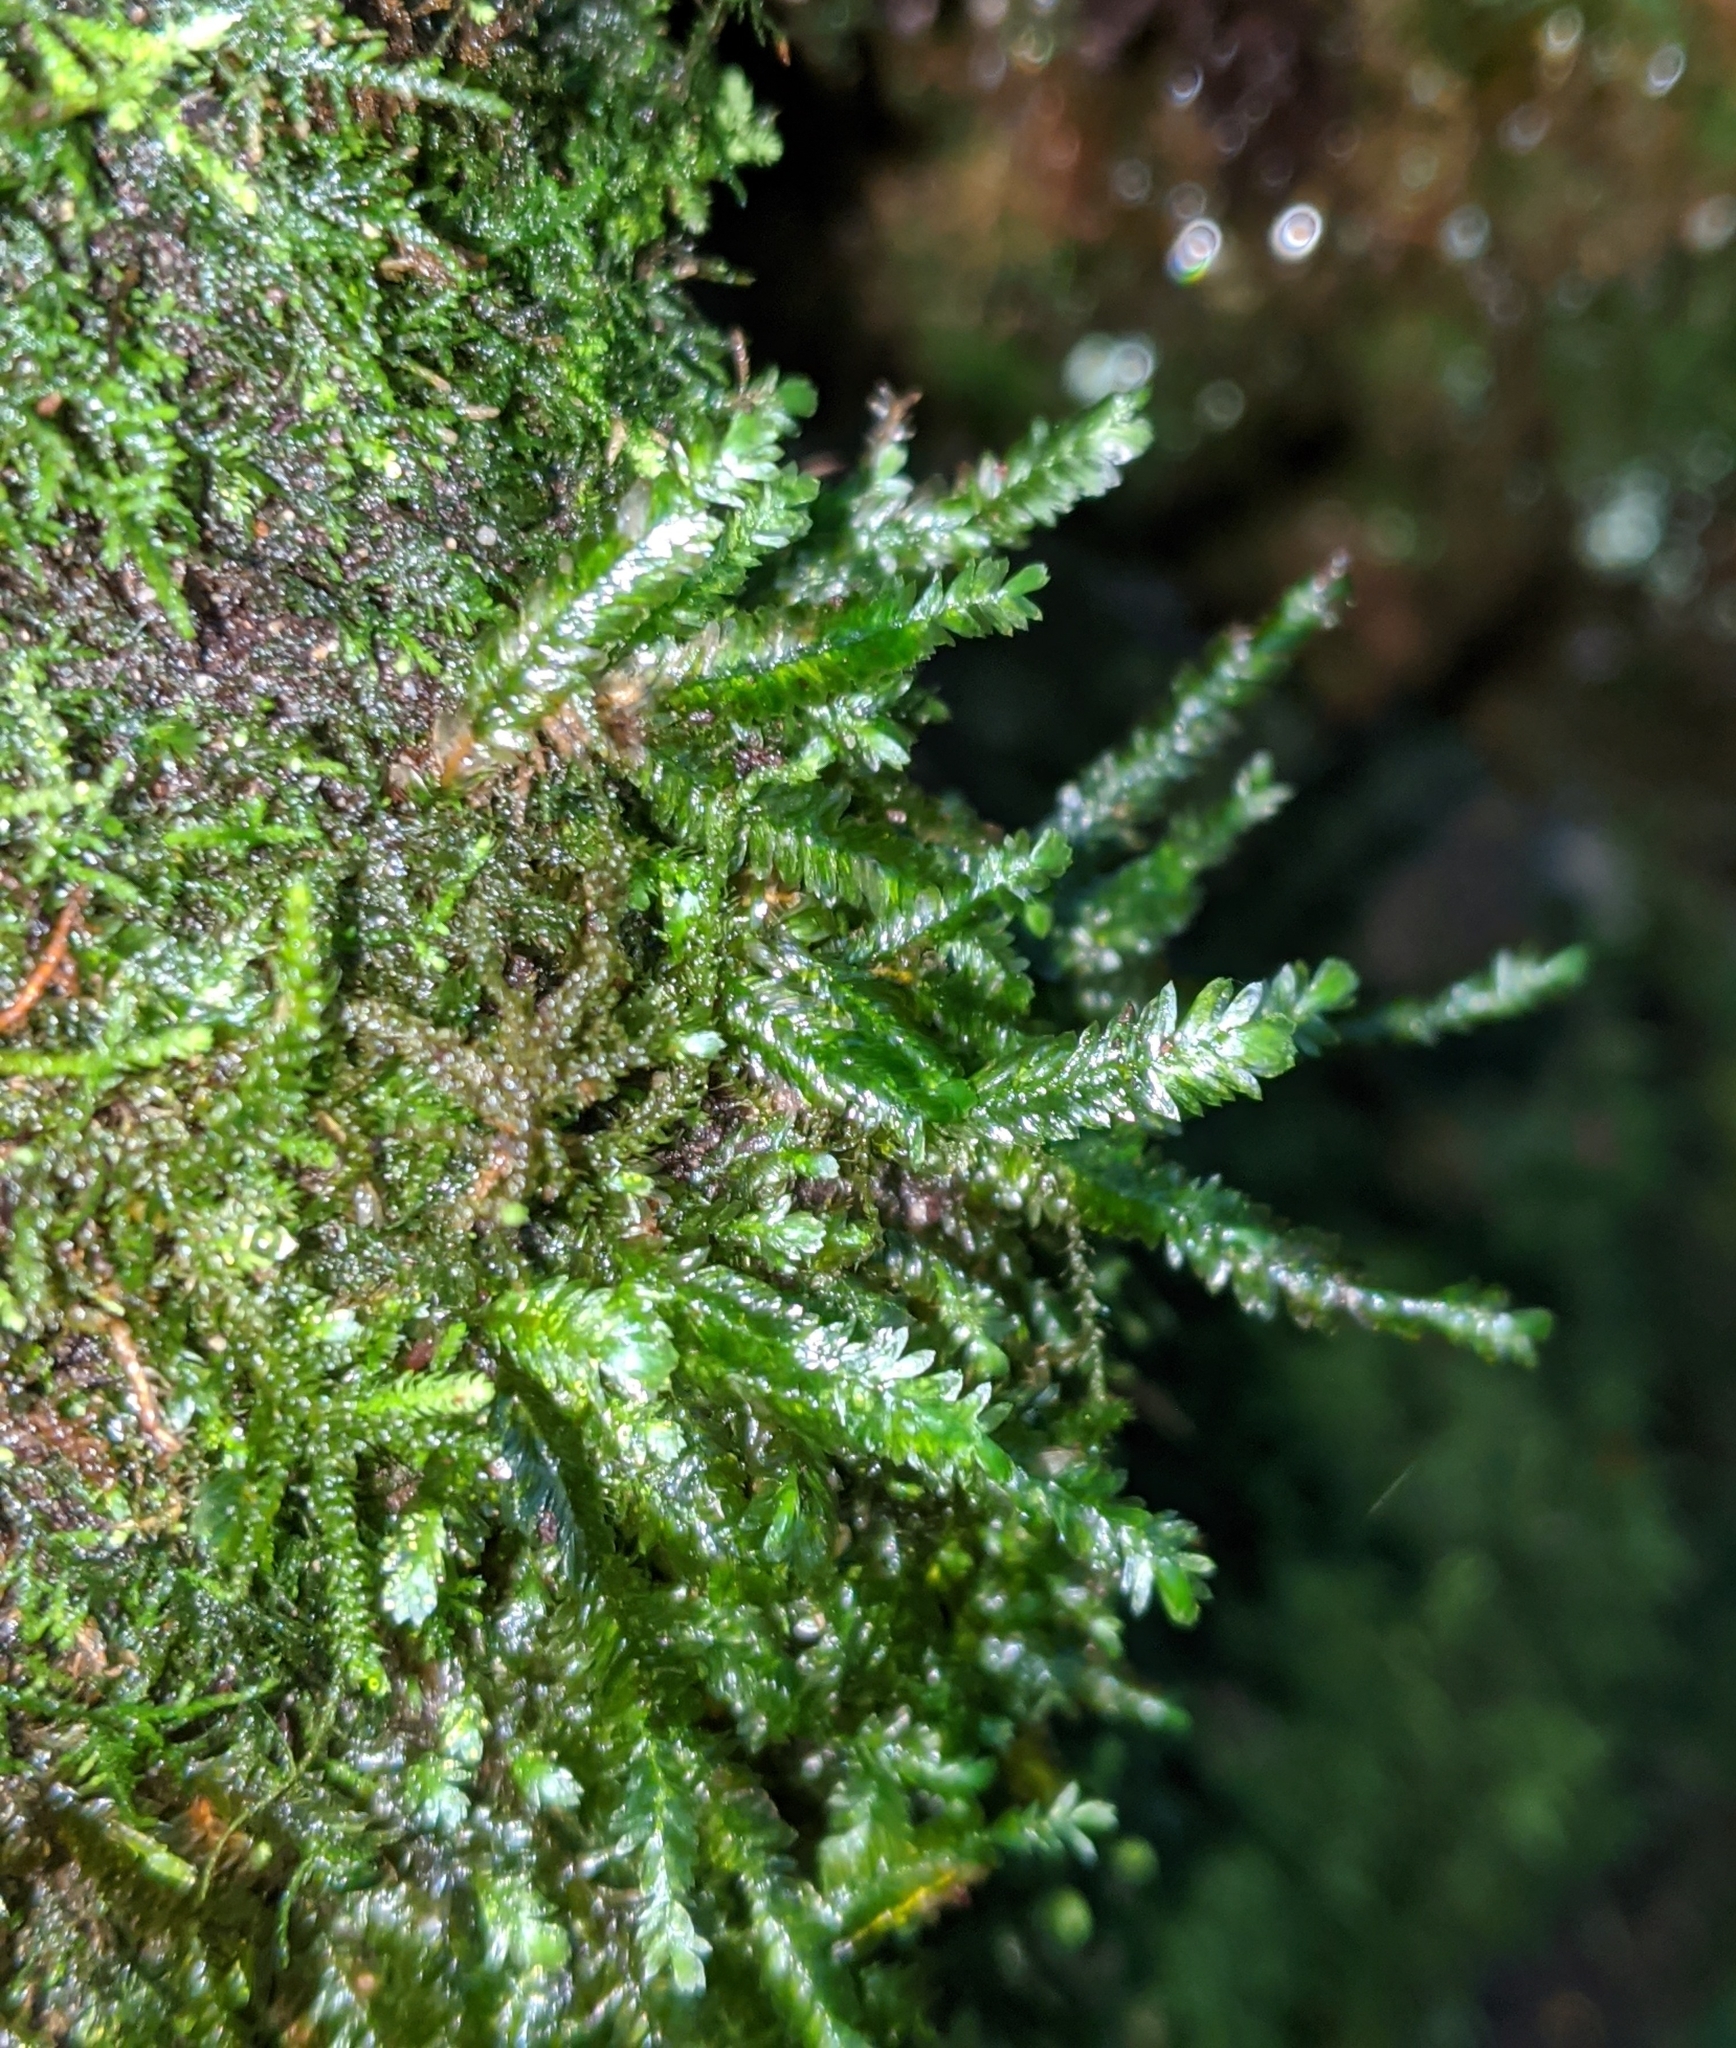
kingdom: Plantae
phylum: Bryophyta
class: Bryopsida
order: Hypnales
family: Neckeraceae
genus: Dannorrisia
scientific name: Dannorrisia bigelovii
